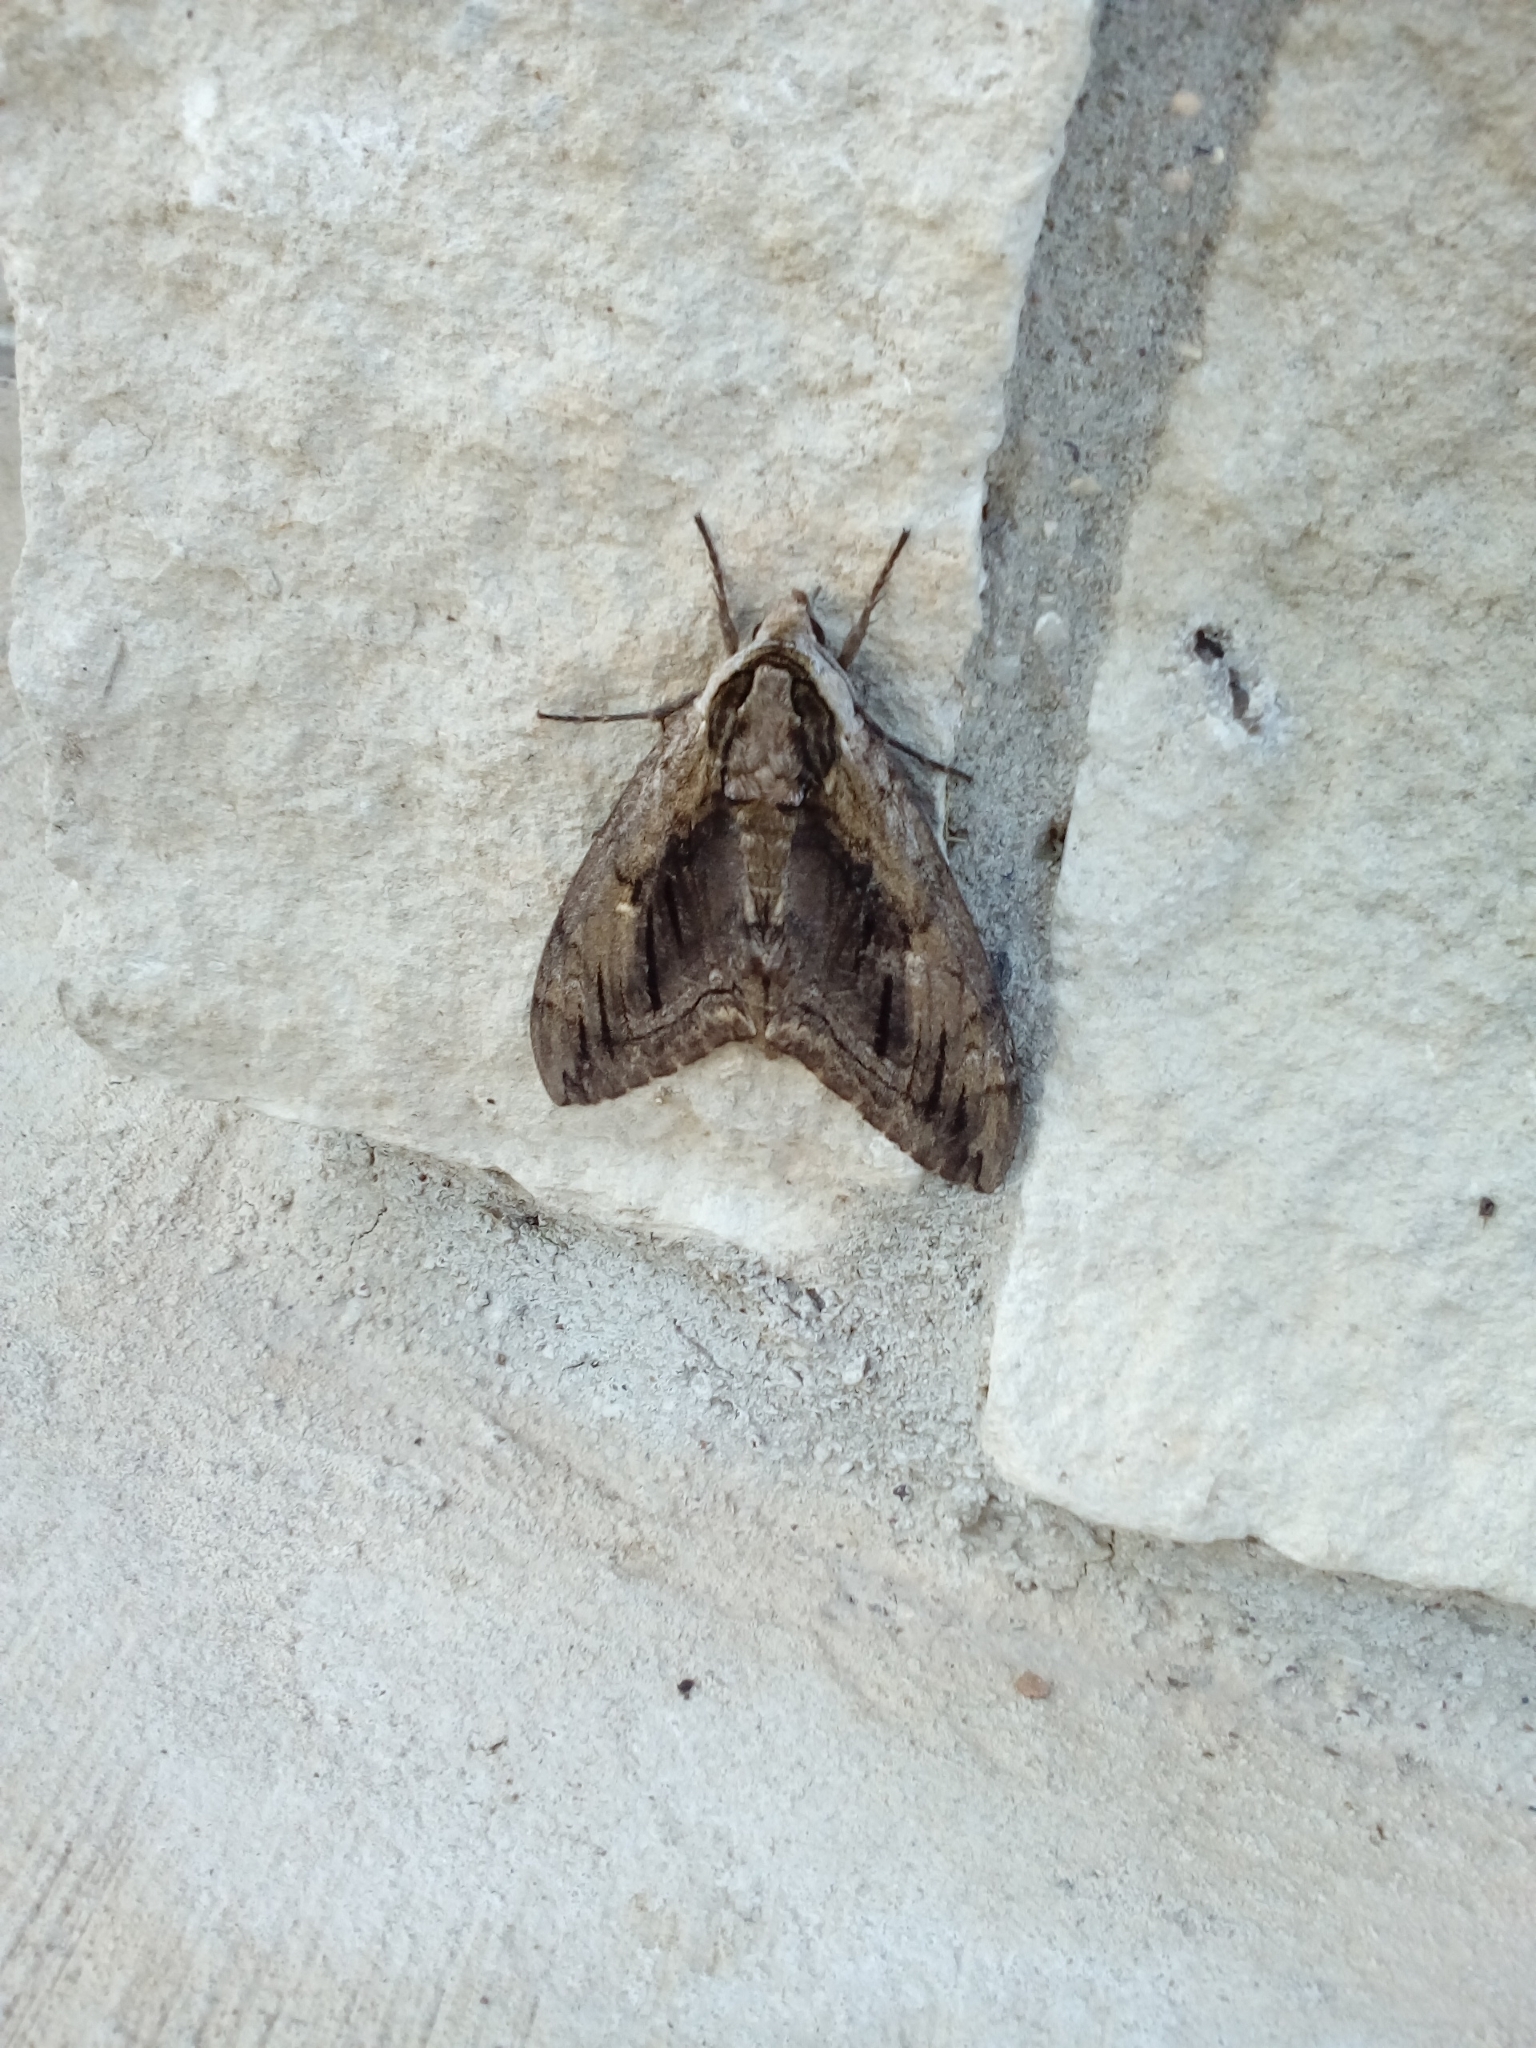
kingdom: Animalia
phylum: Arthropoda
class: Insecta
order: Lepidoptera
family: Sphingidae
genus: Ceratomia
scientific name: Ceratomia amyntor
